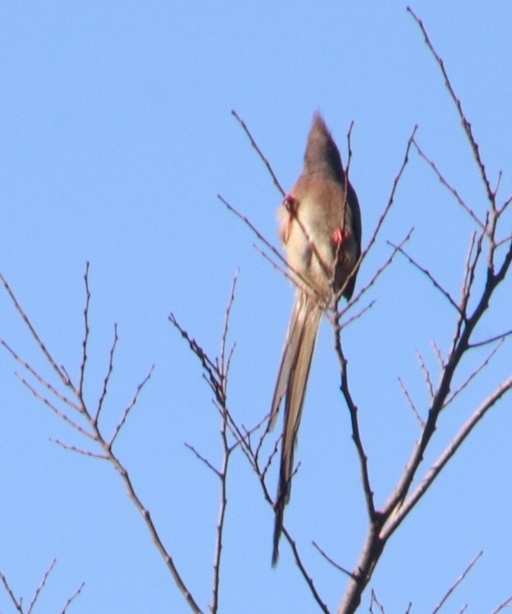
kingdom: Animalia
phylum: Chordata
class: Aves
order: Coliiformes
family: Coliidae
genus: Colius
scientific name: Colius colius
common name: White-backed mousebird
